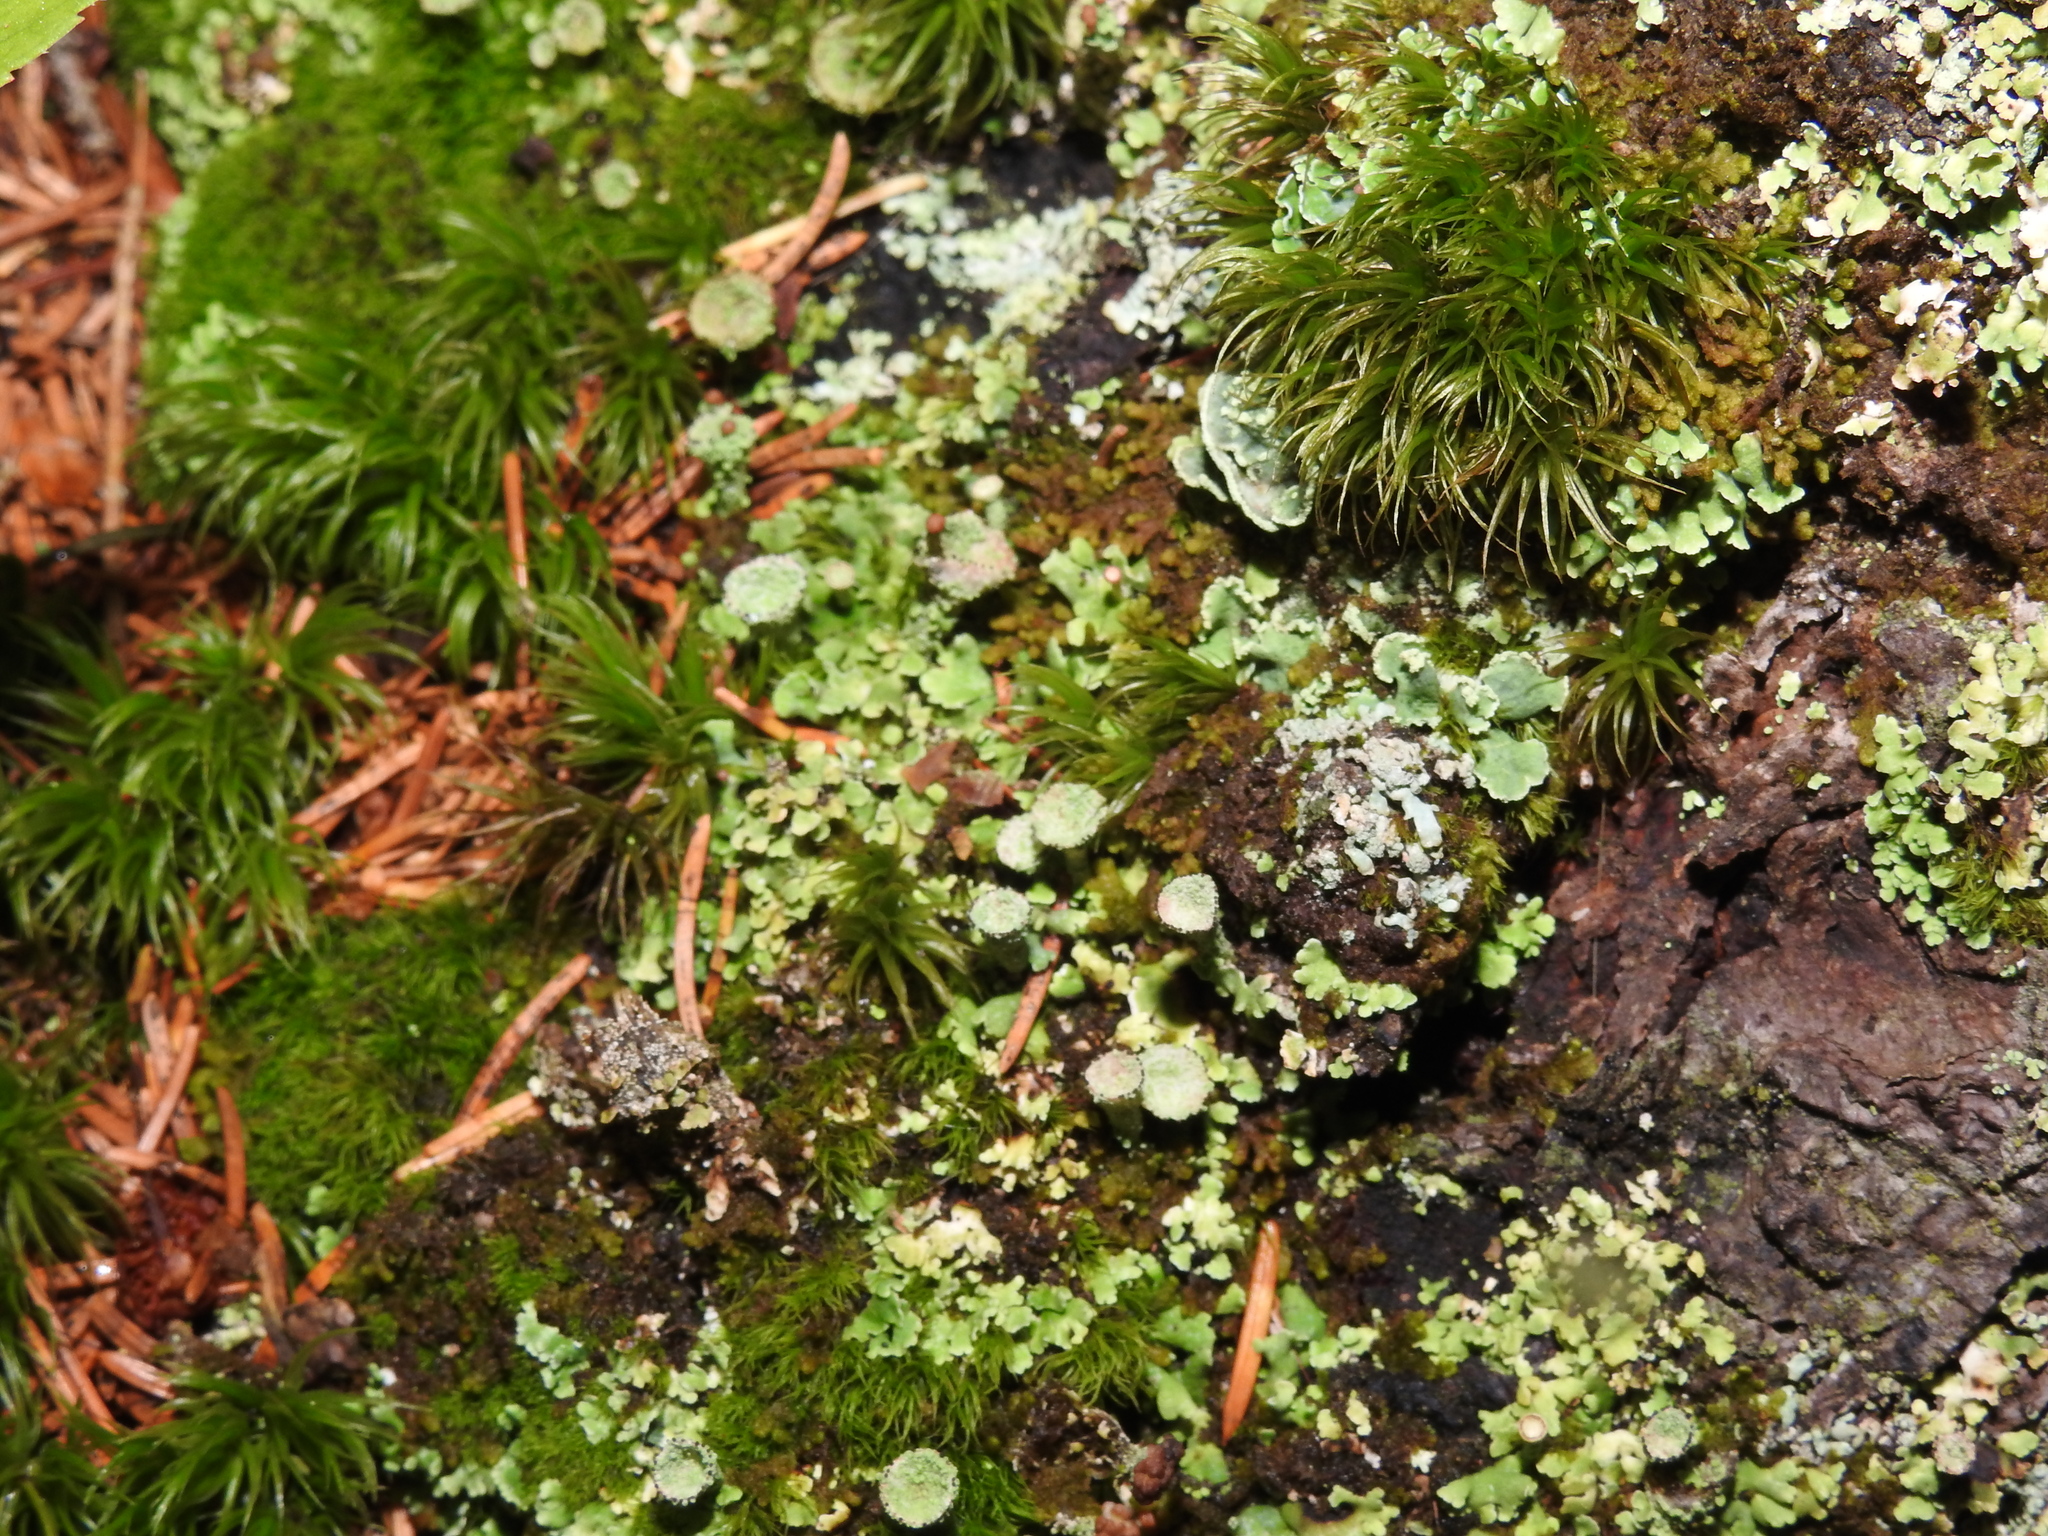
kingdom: Fungi
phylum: Ascomycota
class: Lecanoromycetes
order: Lecanorales
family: Cladoniaceae
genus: Cladonia
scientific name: Cladonia pyxidata
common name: Pebbled pixie cup
